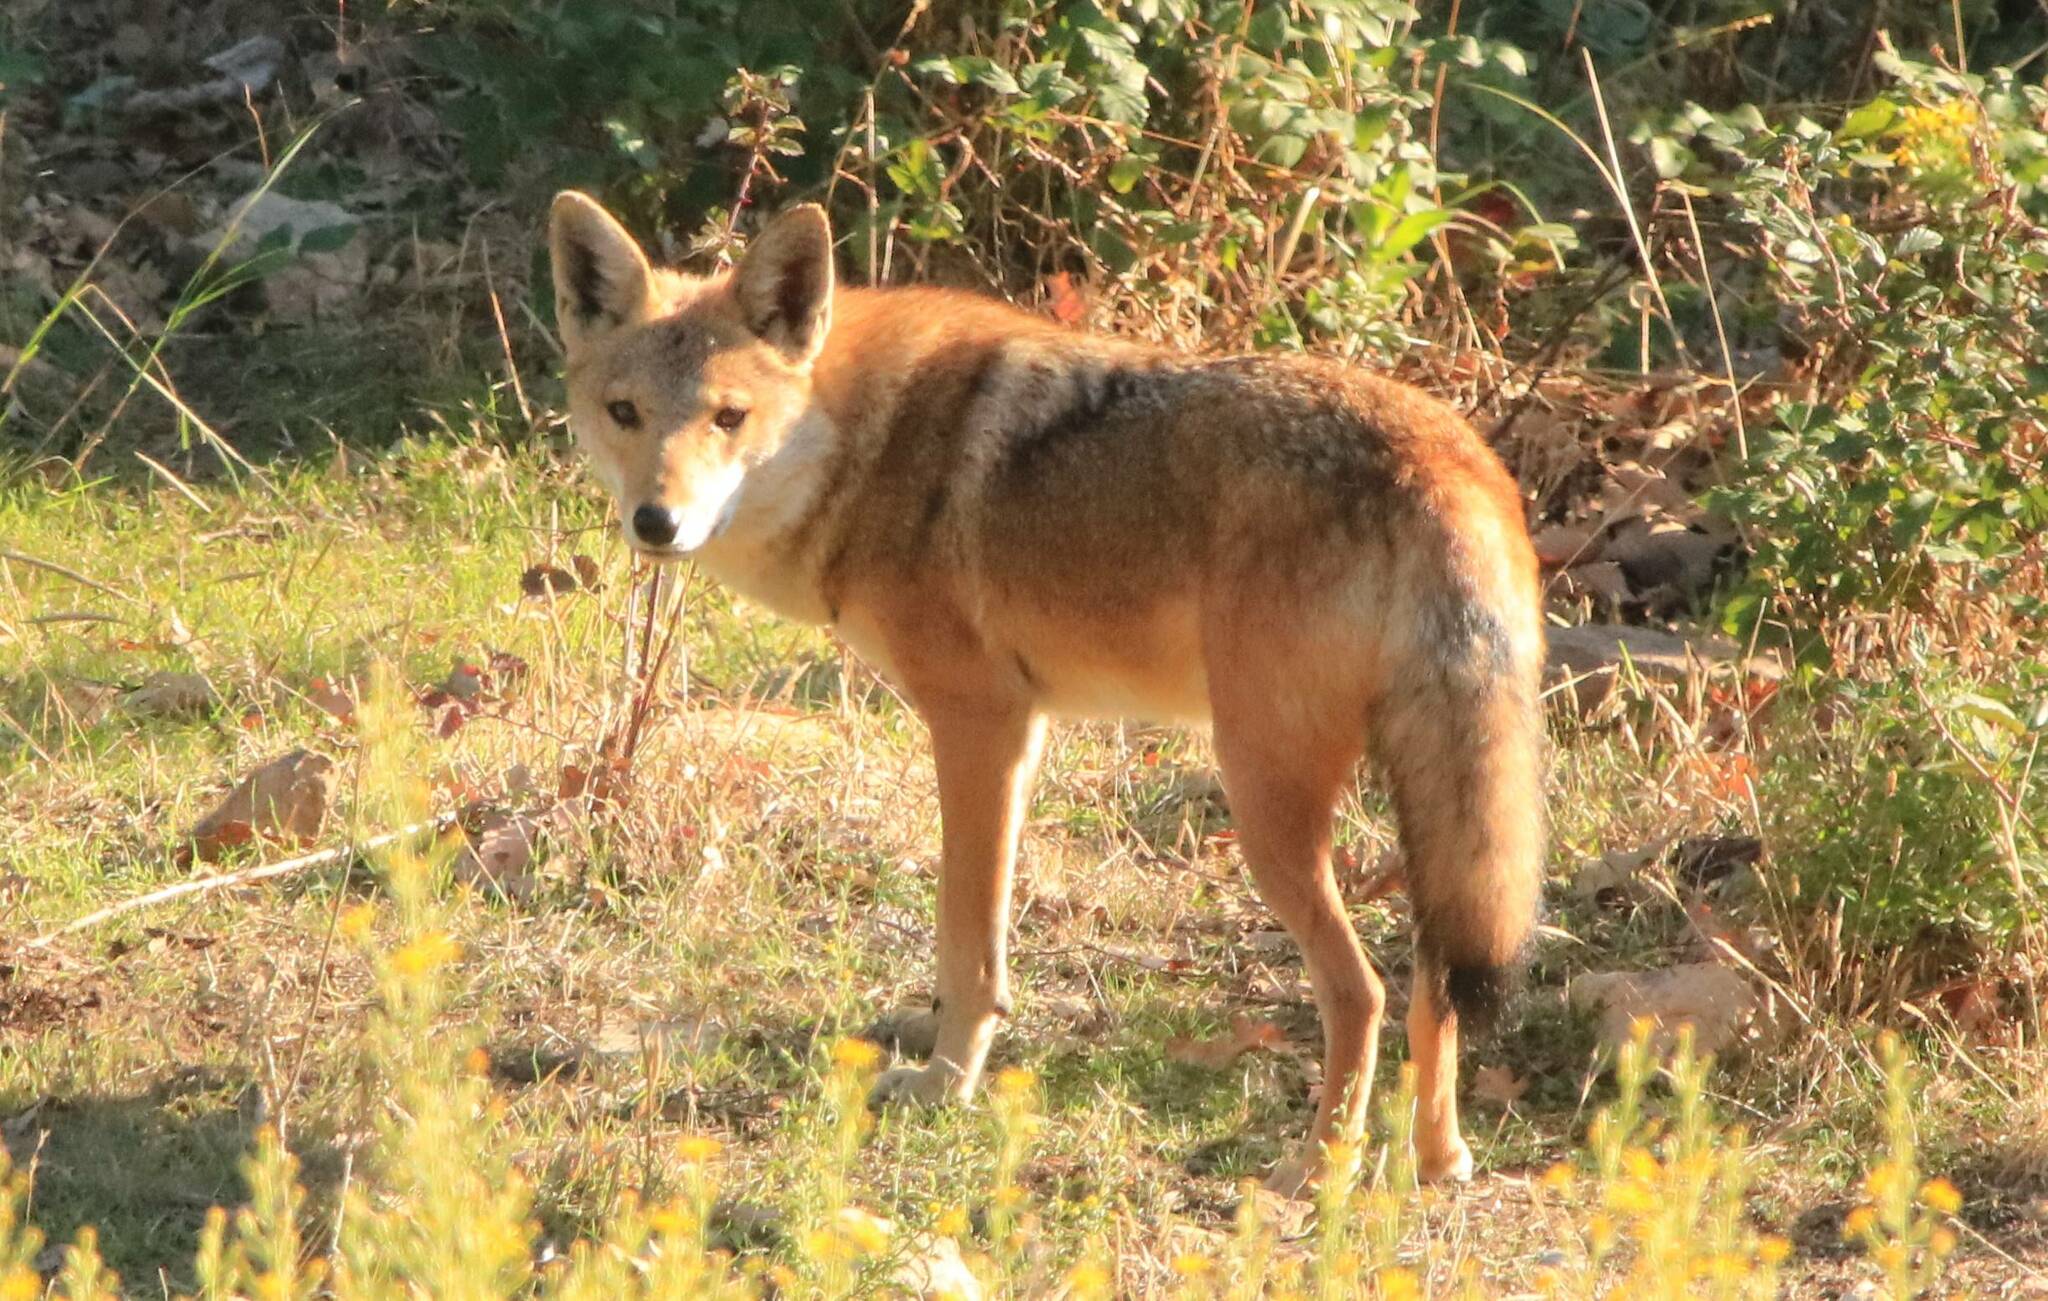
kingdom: Animalia
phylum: Chordata
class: Mammalia
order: Carnivora
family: Canidae
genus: Canis
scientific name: Canis lupaster
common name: African golden wolf
